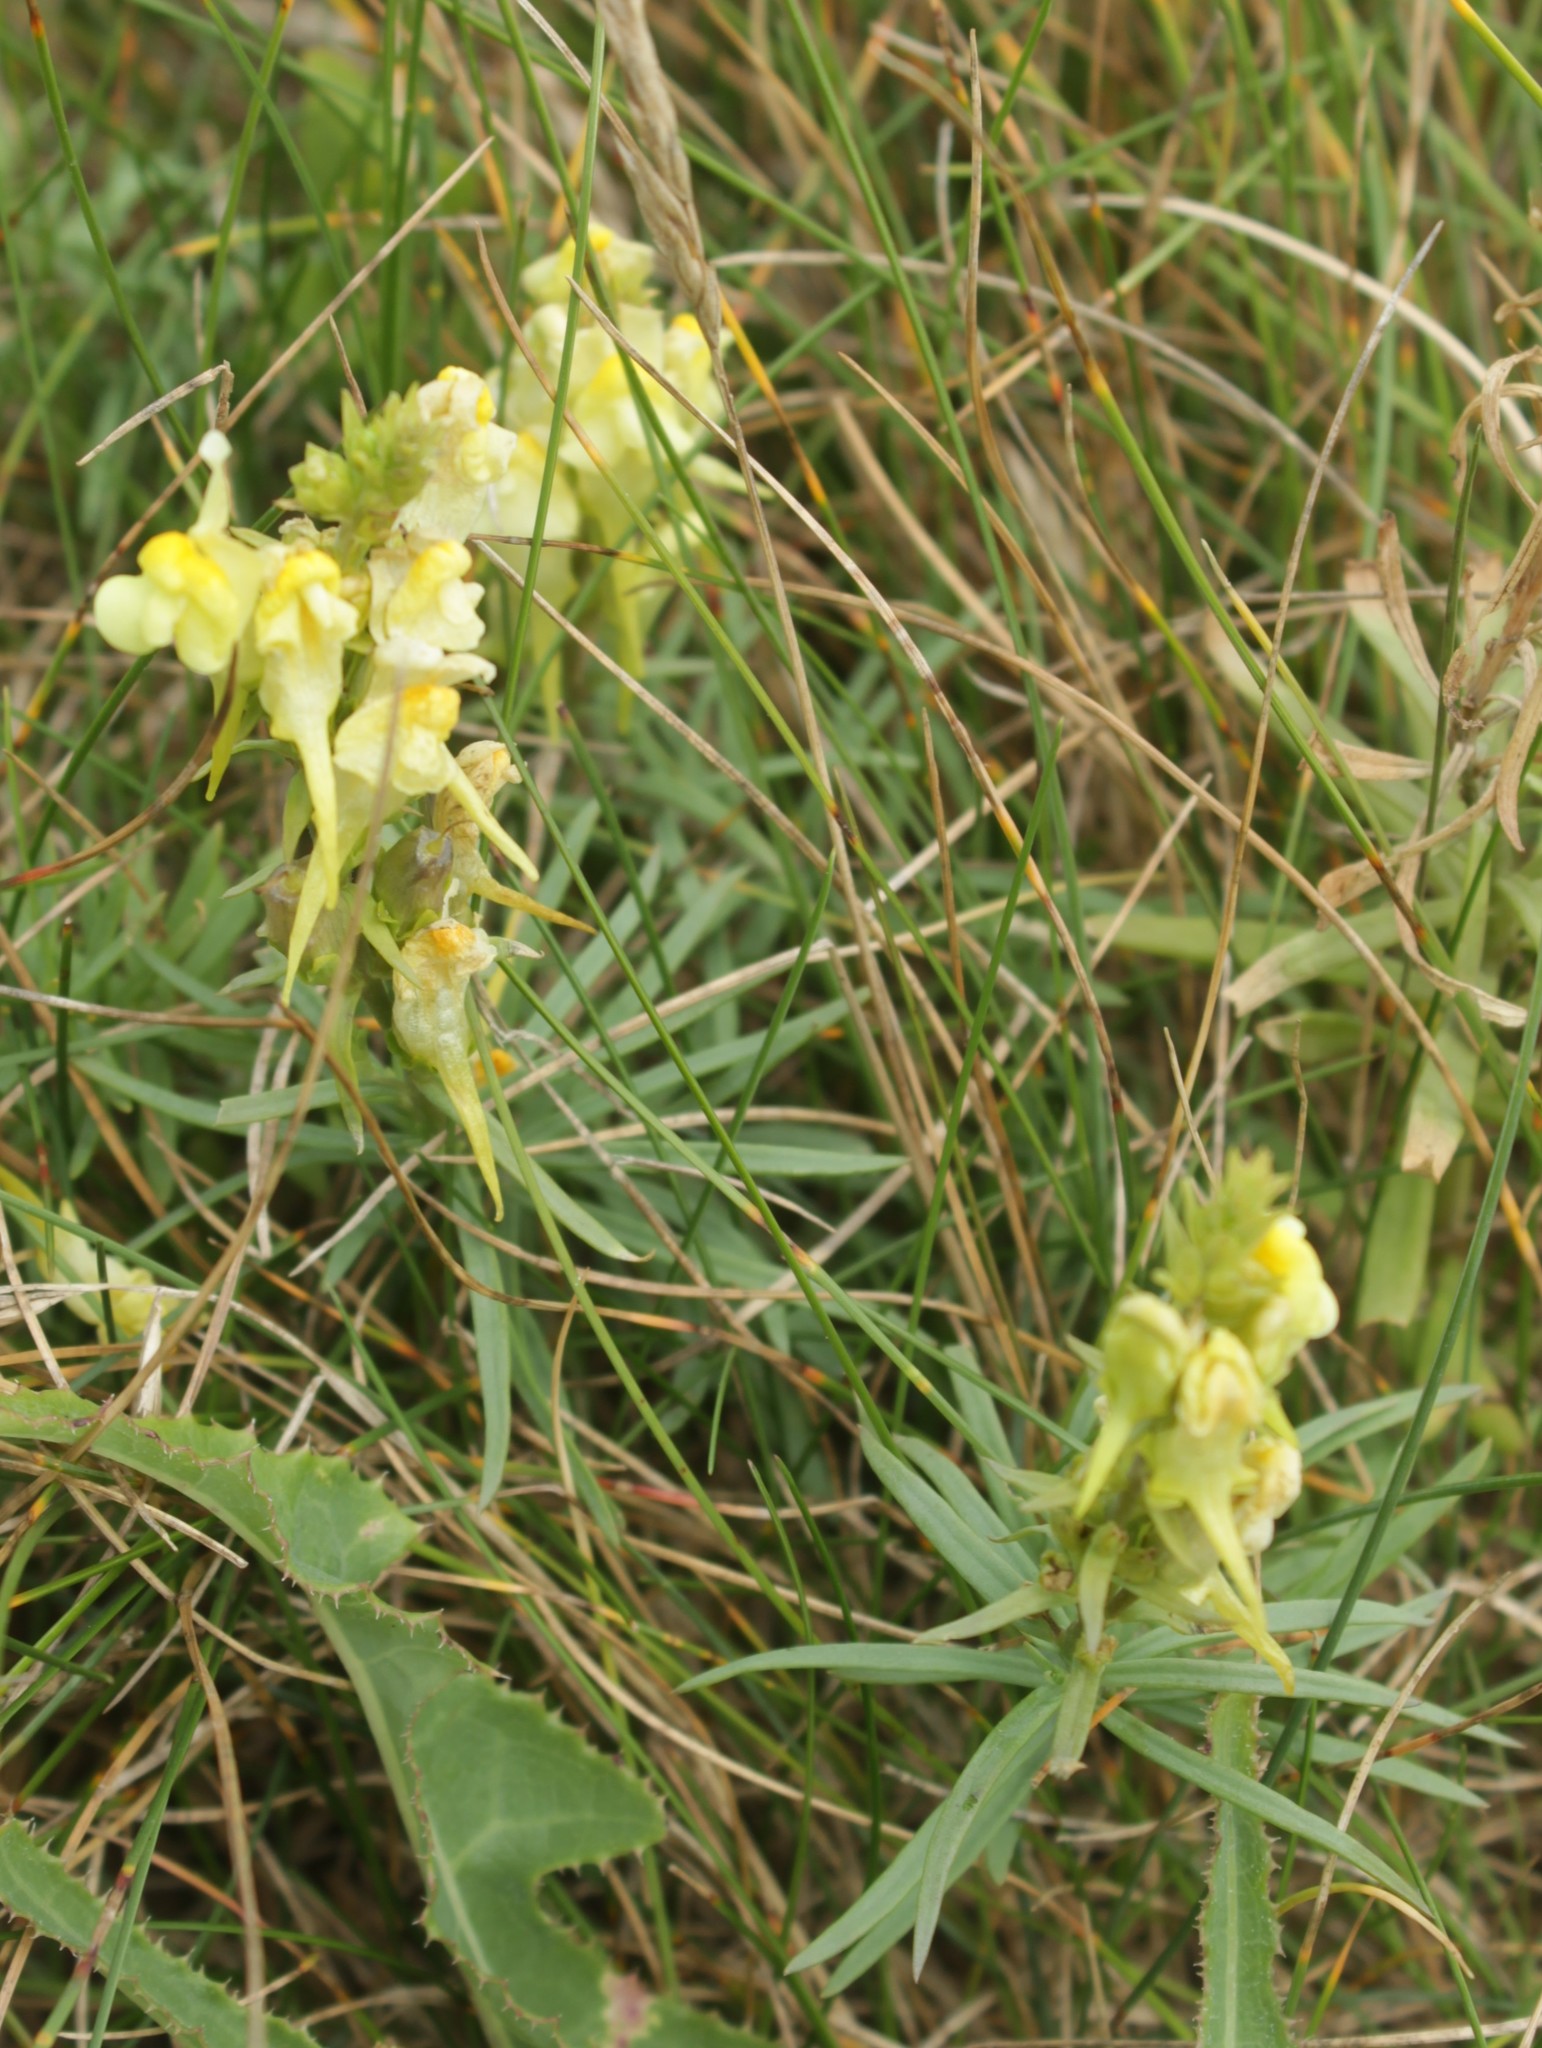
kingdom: Plantae
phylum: Tracheophyta
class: Magnoliopsida
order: Lamiales
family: Plantaginaceae
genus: Linaria
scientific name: Linaria vulgaris
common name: Butter and eggs
